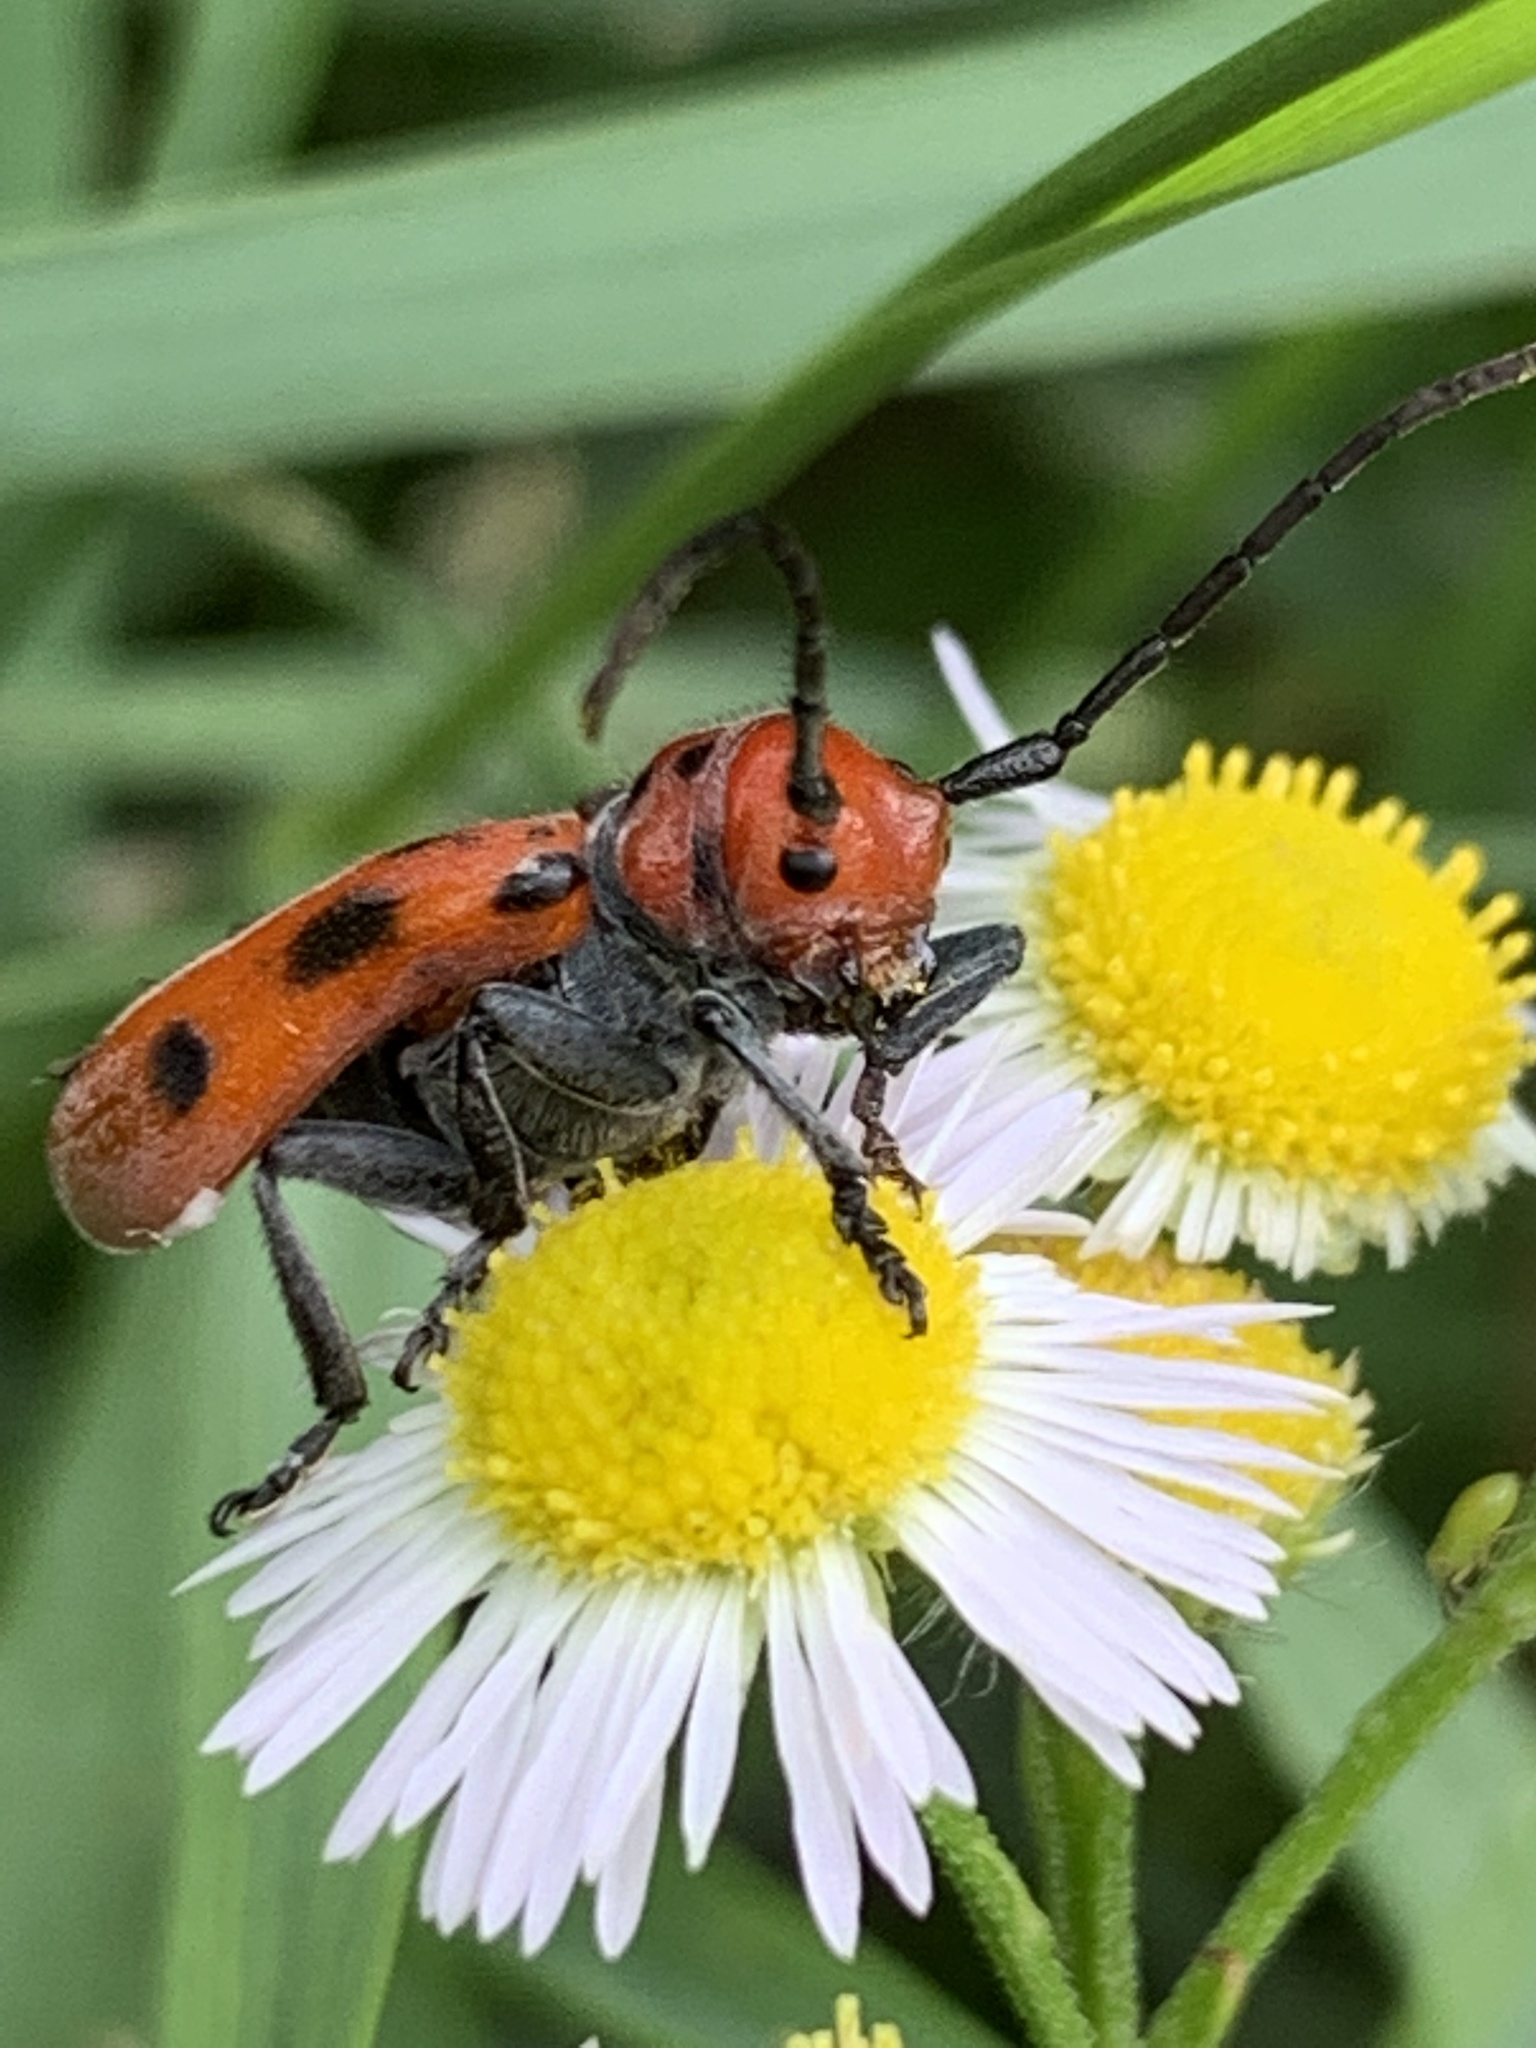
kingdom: Animalia
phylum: Arthropoda
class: Insecta
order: Coleoptera
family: Cerambycidae
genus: Tetraopes
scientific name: Tetraopes tetrophthalmus
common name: Red milkweed beetle
